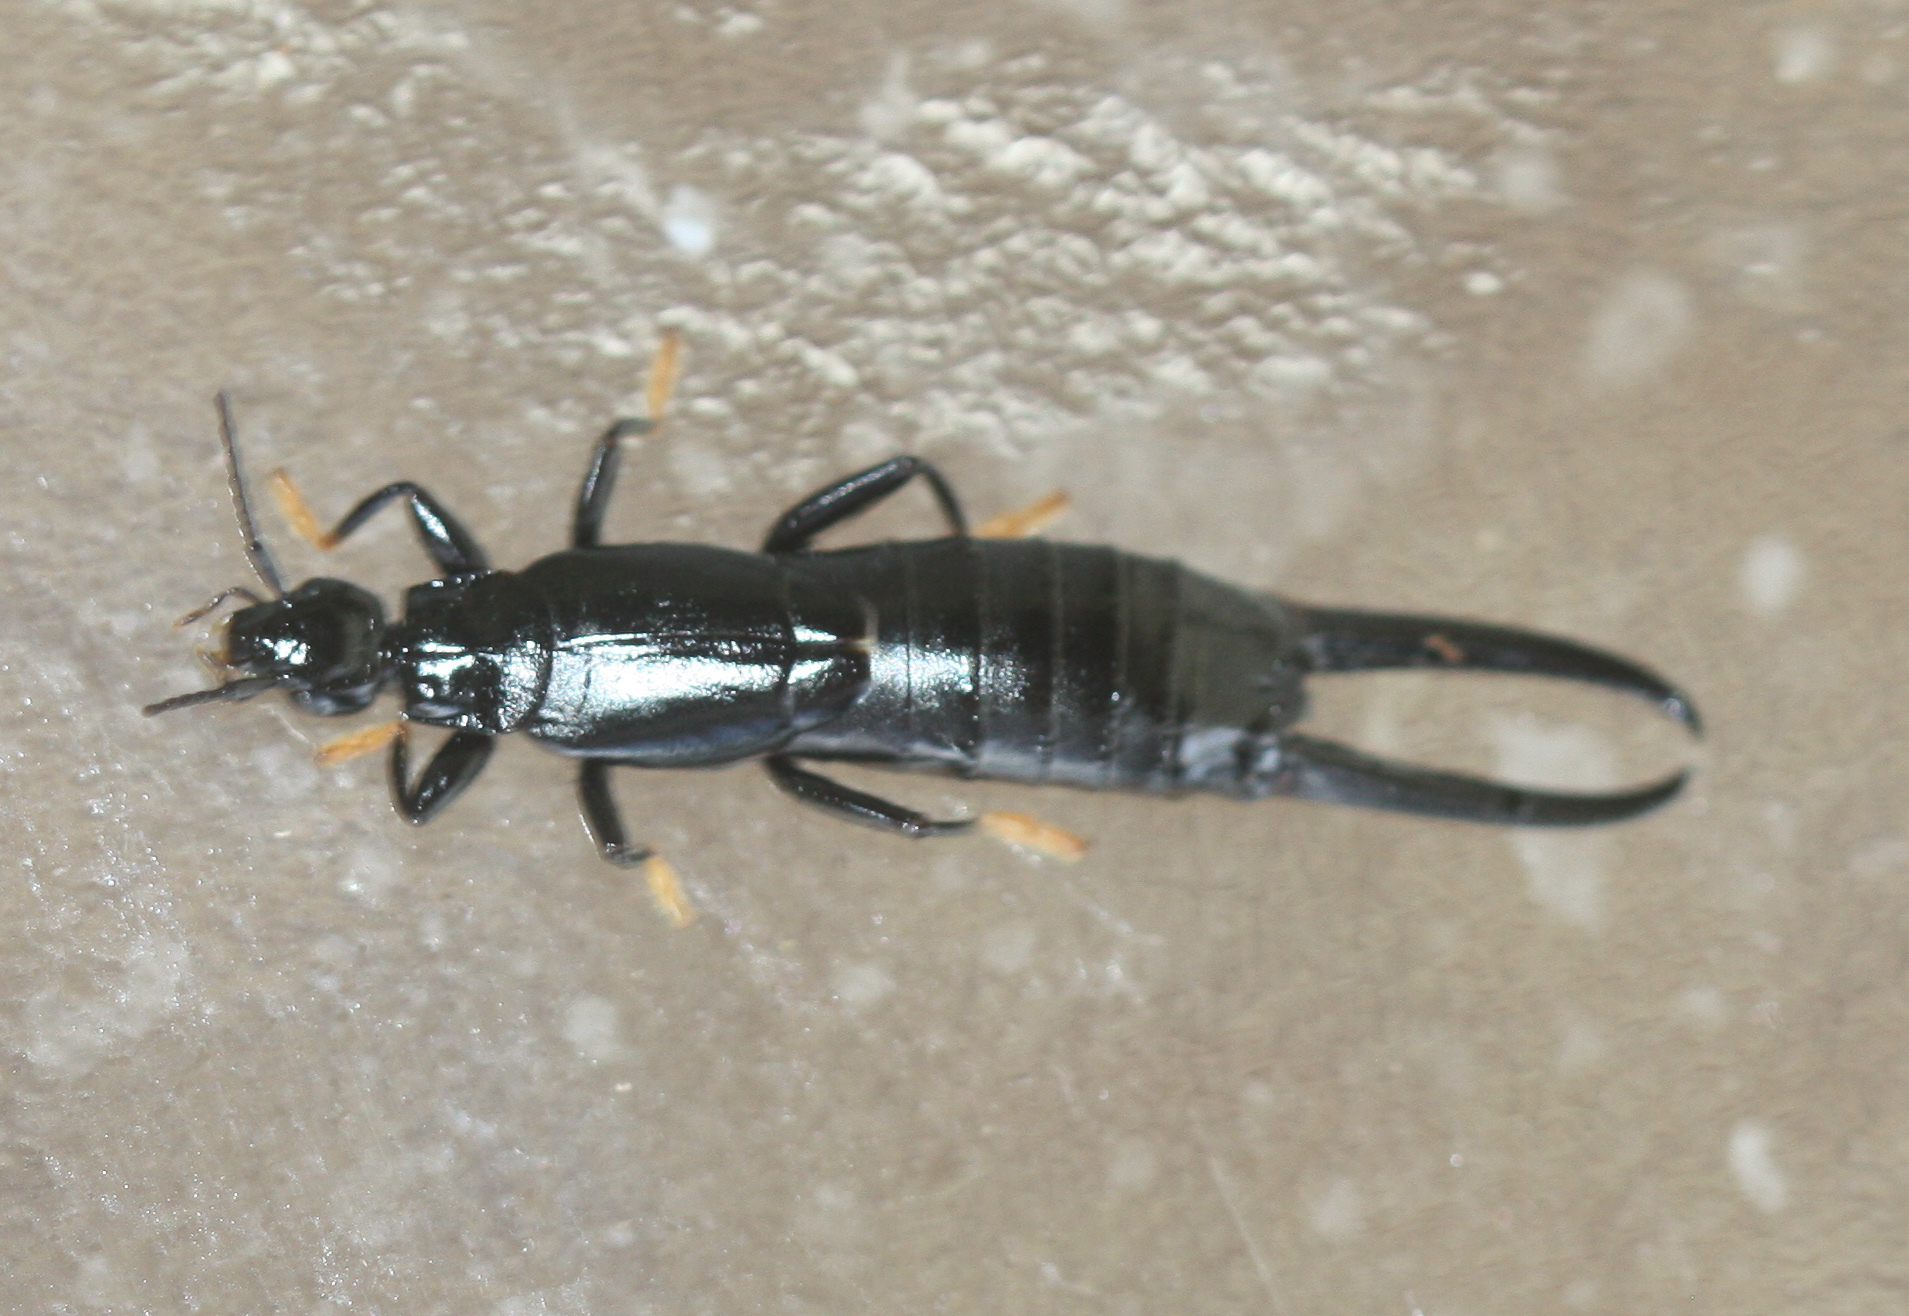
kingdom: Animalia
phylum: Arthropoda
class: Insecta
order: Dermaptera
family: Chelisochidae
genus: Chelisoches
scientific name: Chelisoches morio
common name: Black earwig
